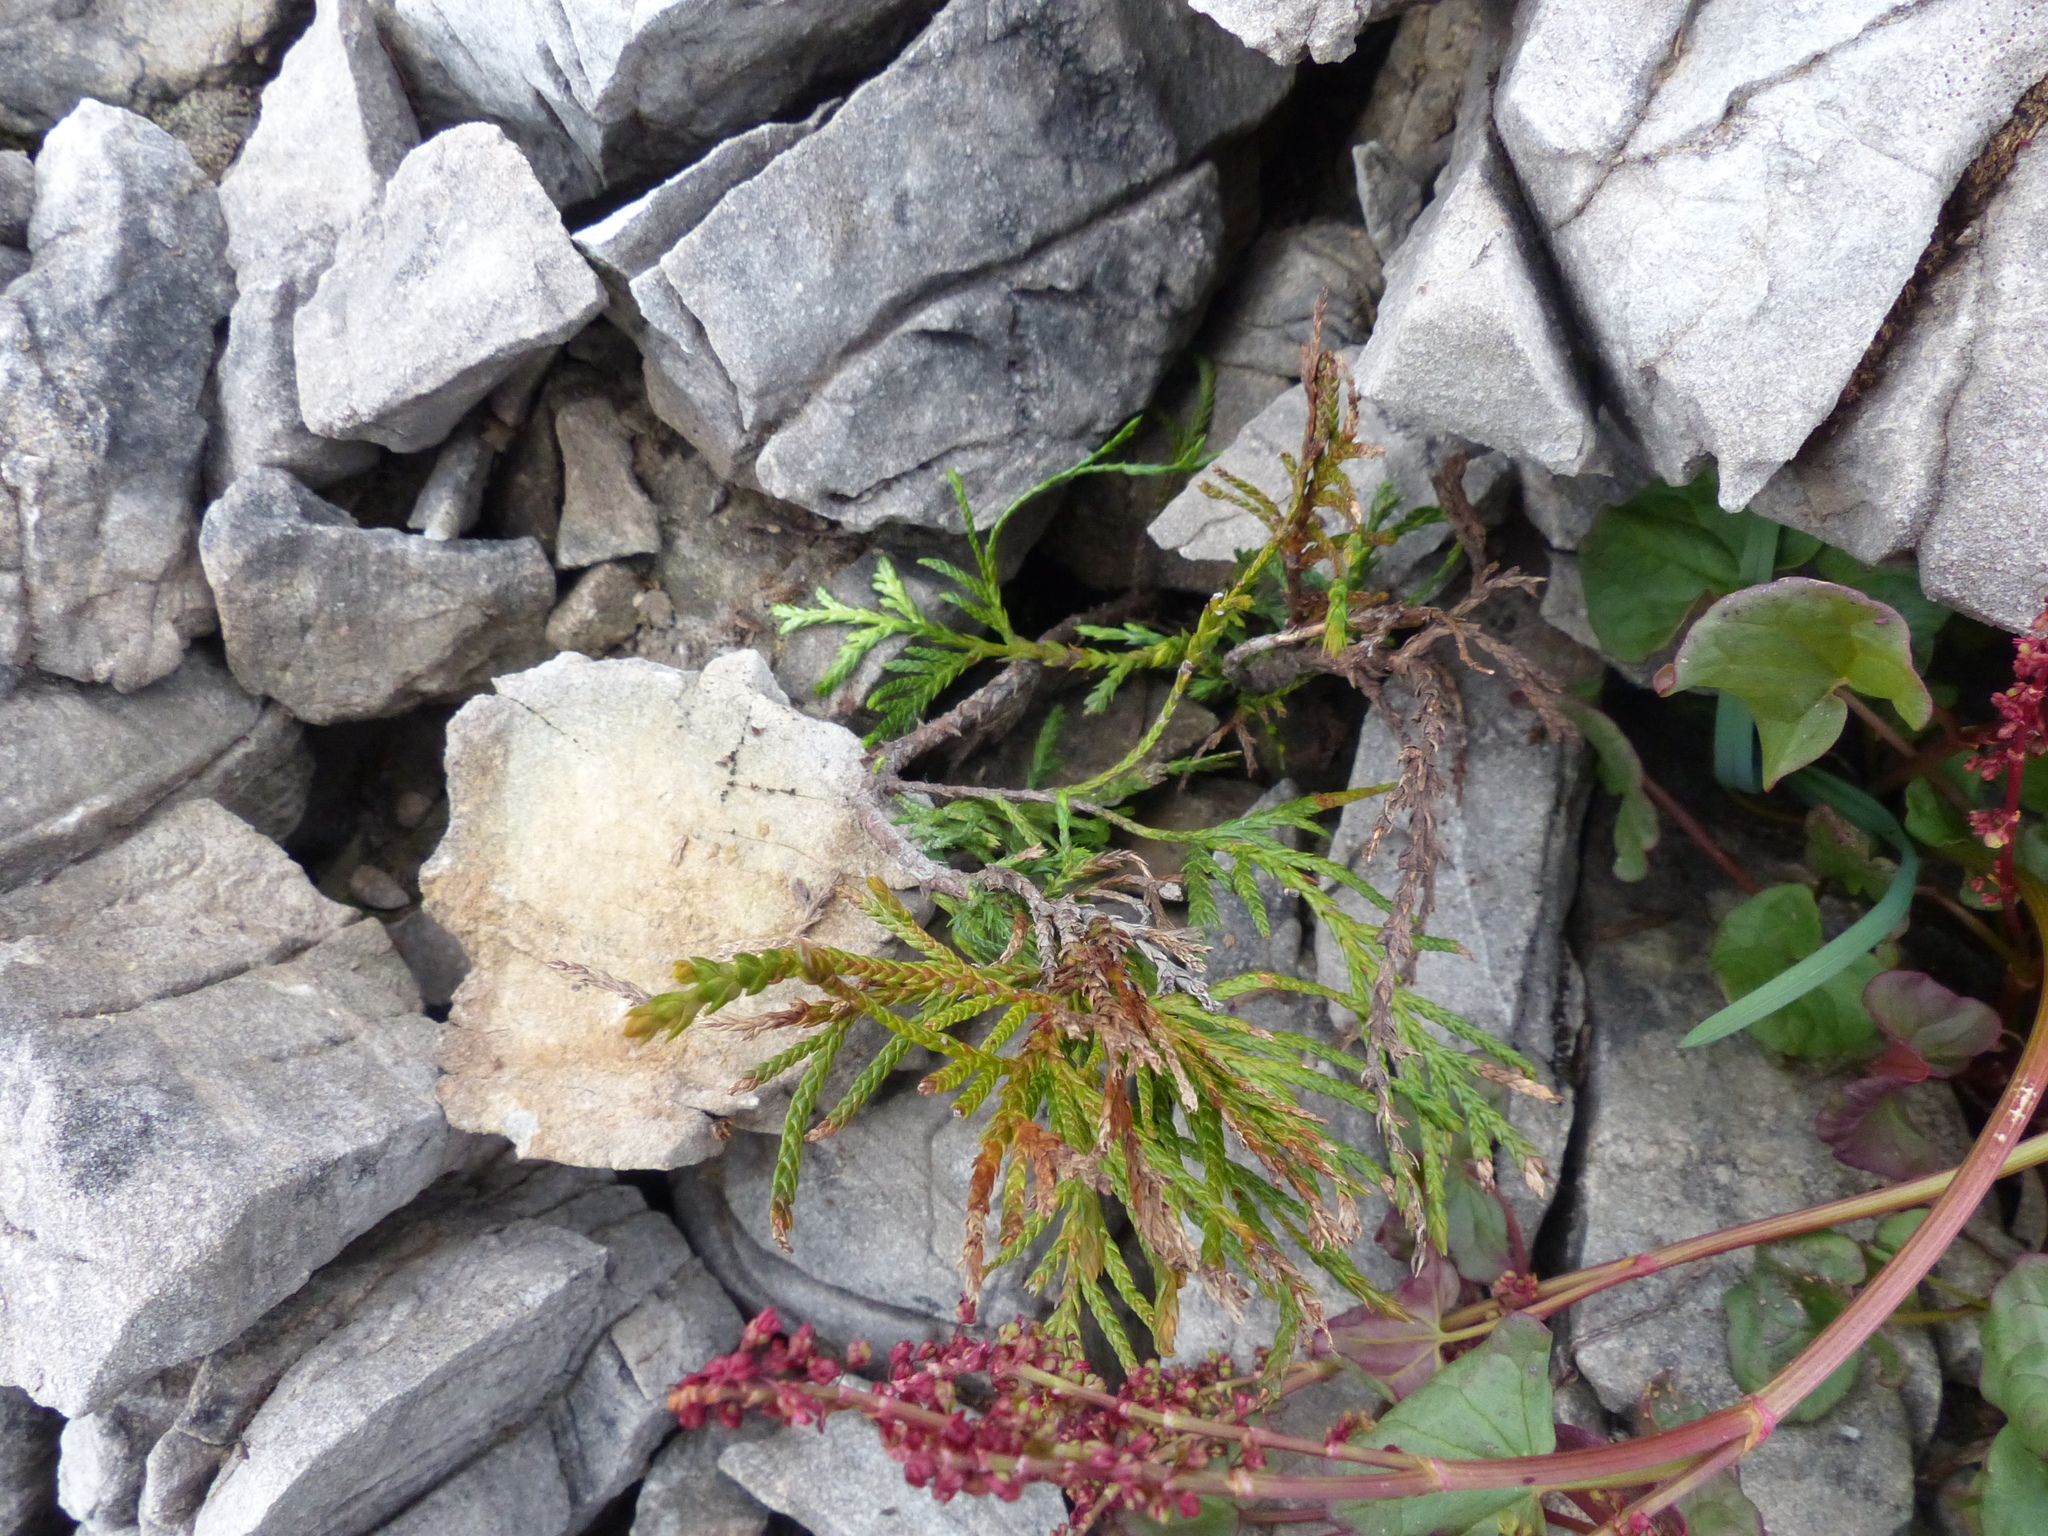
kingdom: Plantae
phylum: Tracheophyta
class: Pinopsida
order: Pinales
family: Cupressaceae
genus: Thuja
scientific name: Thuja plicata
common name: Western red-cedar
